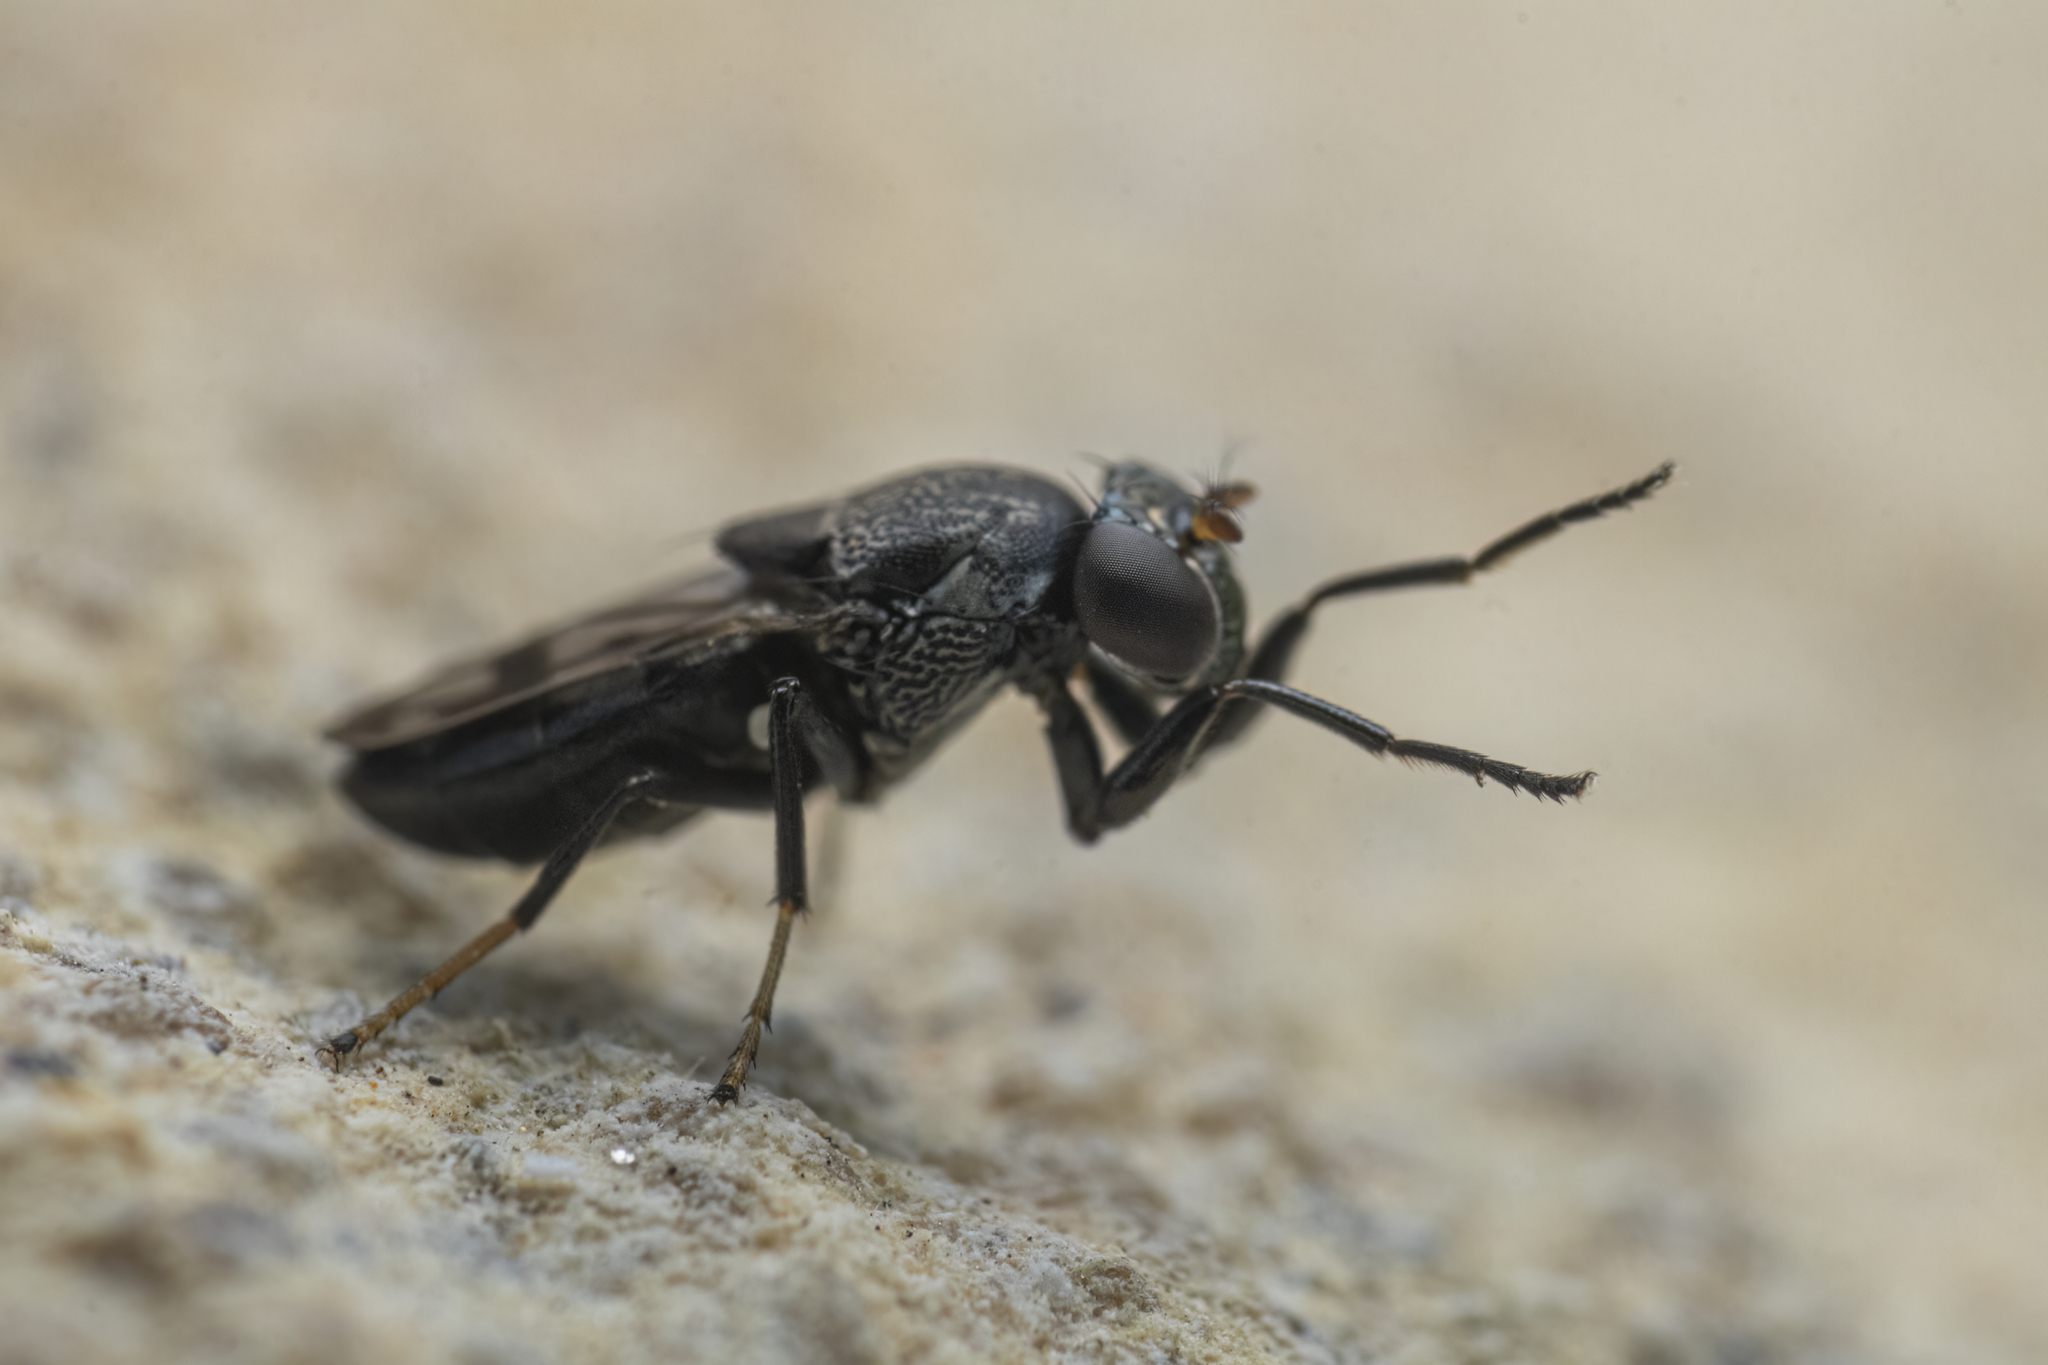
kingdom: Animalia
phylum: Arthropoda
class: Insecta
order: Diptera
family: Ephydridae
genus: Discomyza
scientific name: Discomyza maculipennis
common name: Shore fly
